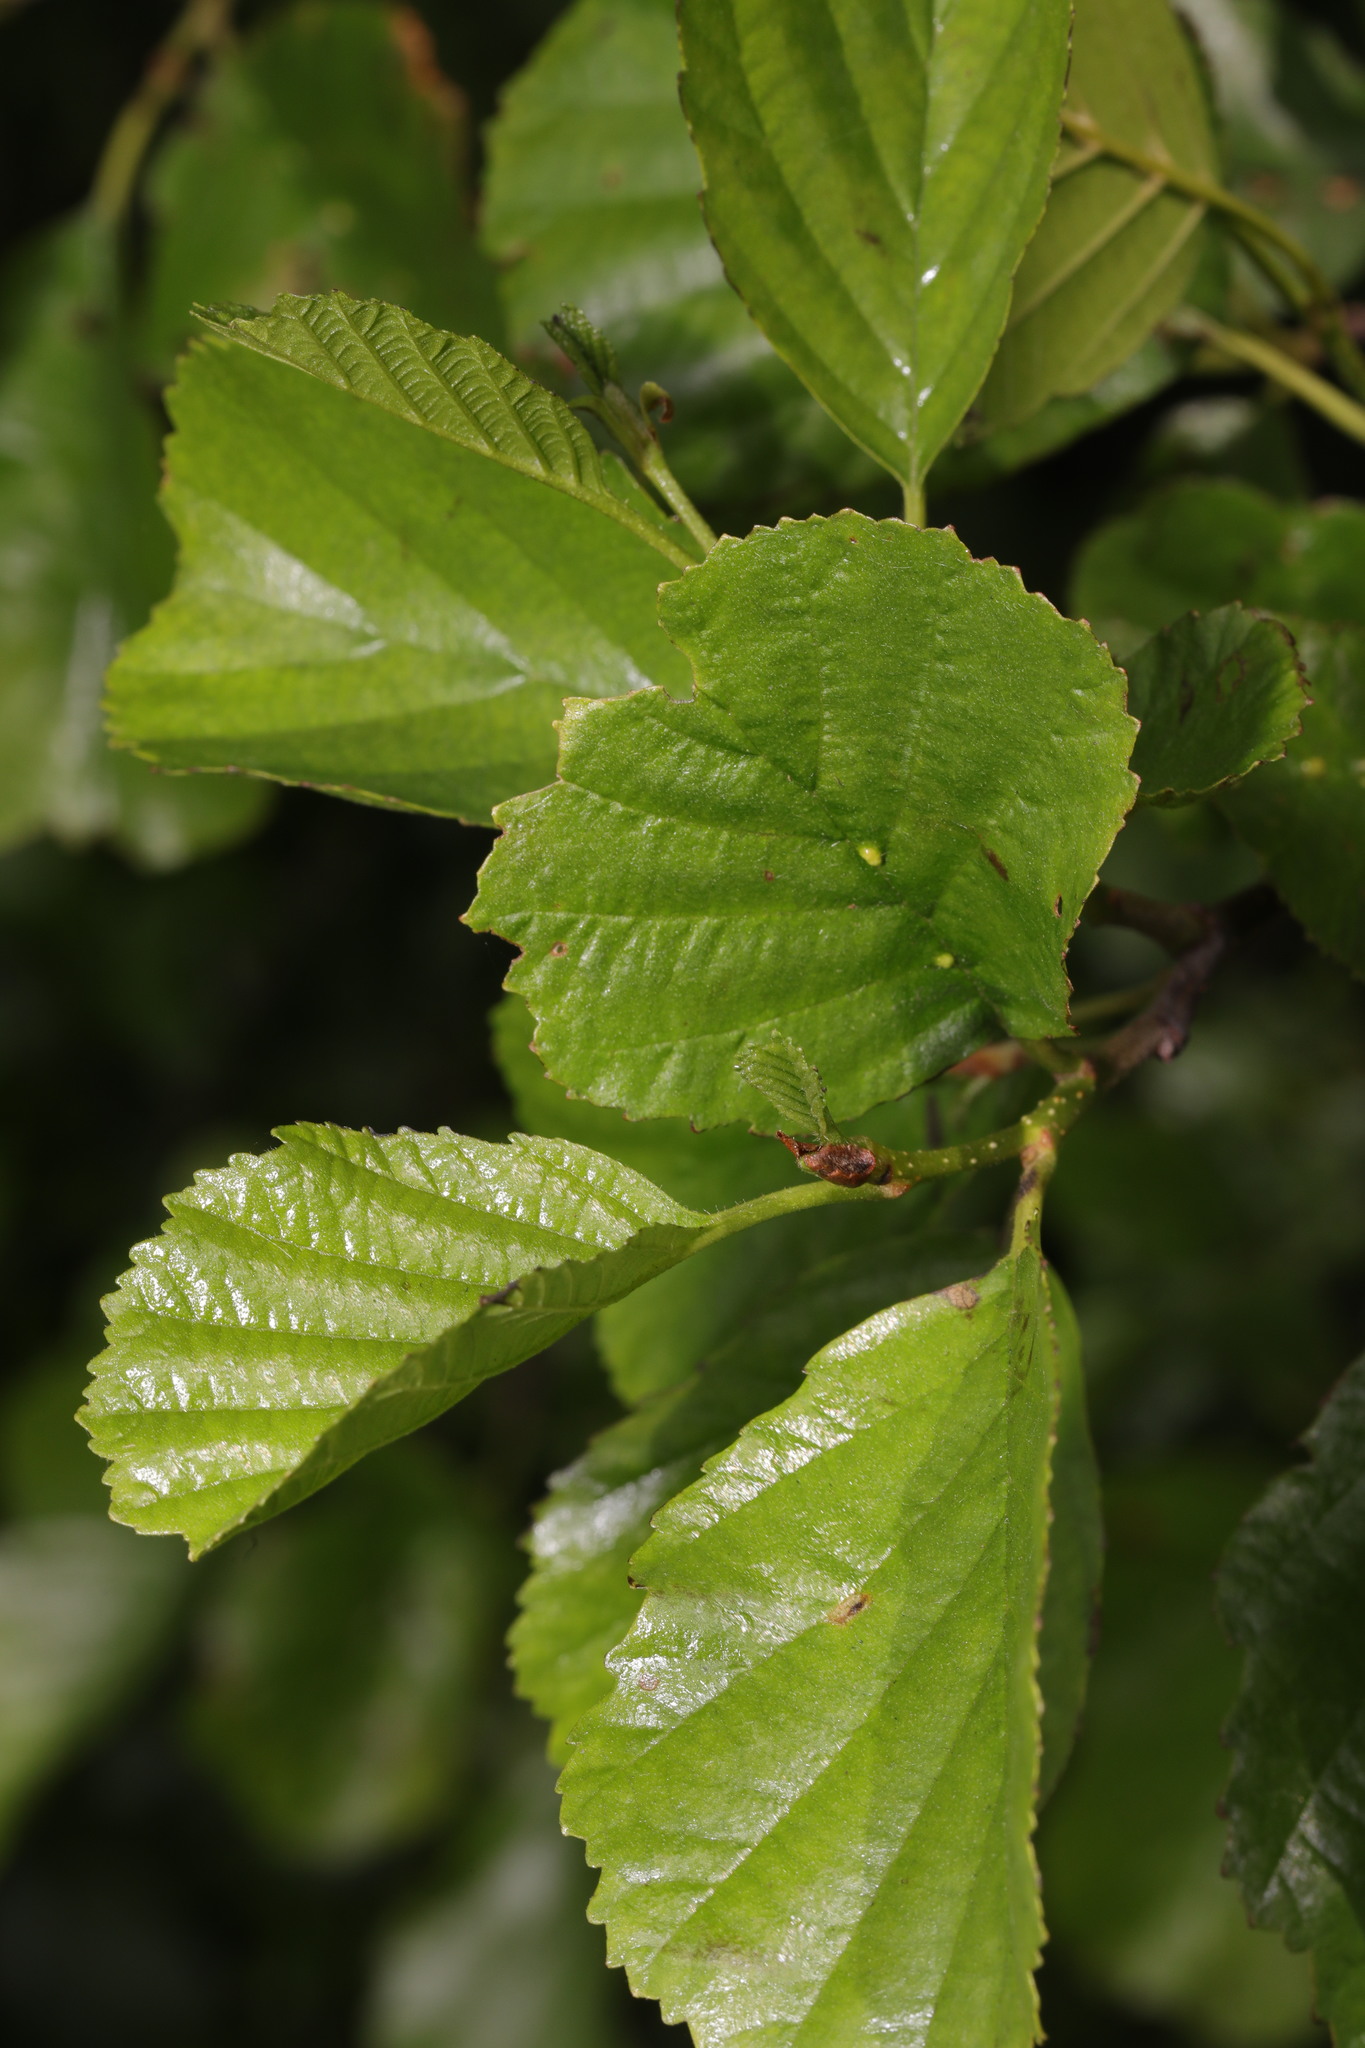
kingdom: Plantae
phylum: Tracheophyta
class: Magnoliopsida
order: Fagales
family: Betulaceae
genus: Alnus
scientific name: Alnus glutinosa
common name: Black alder
